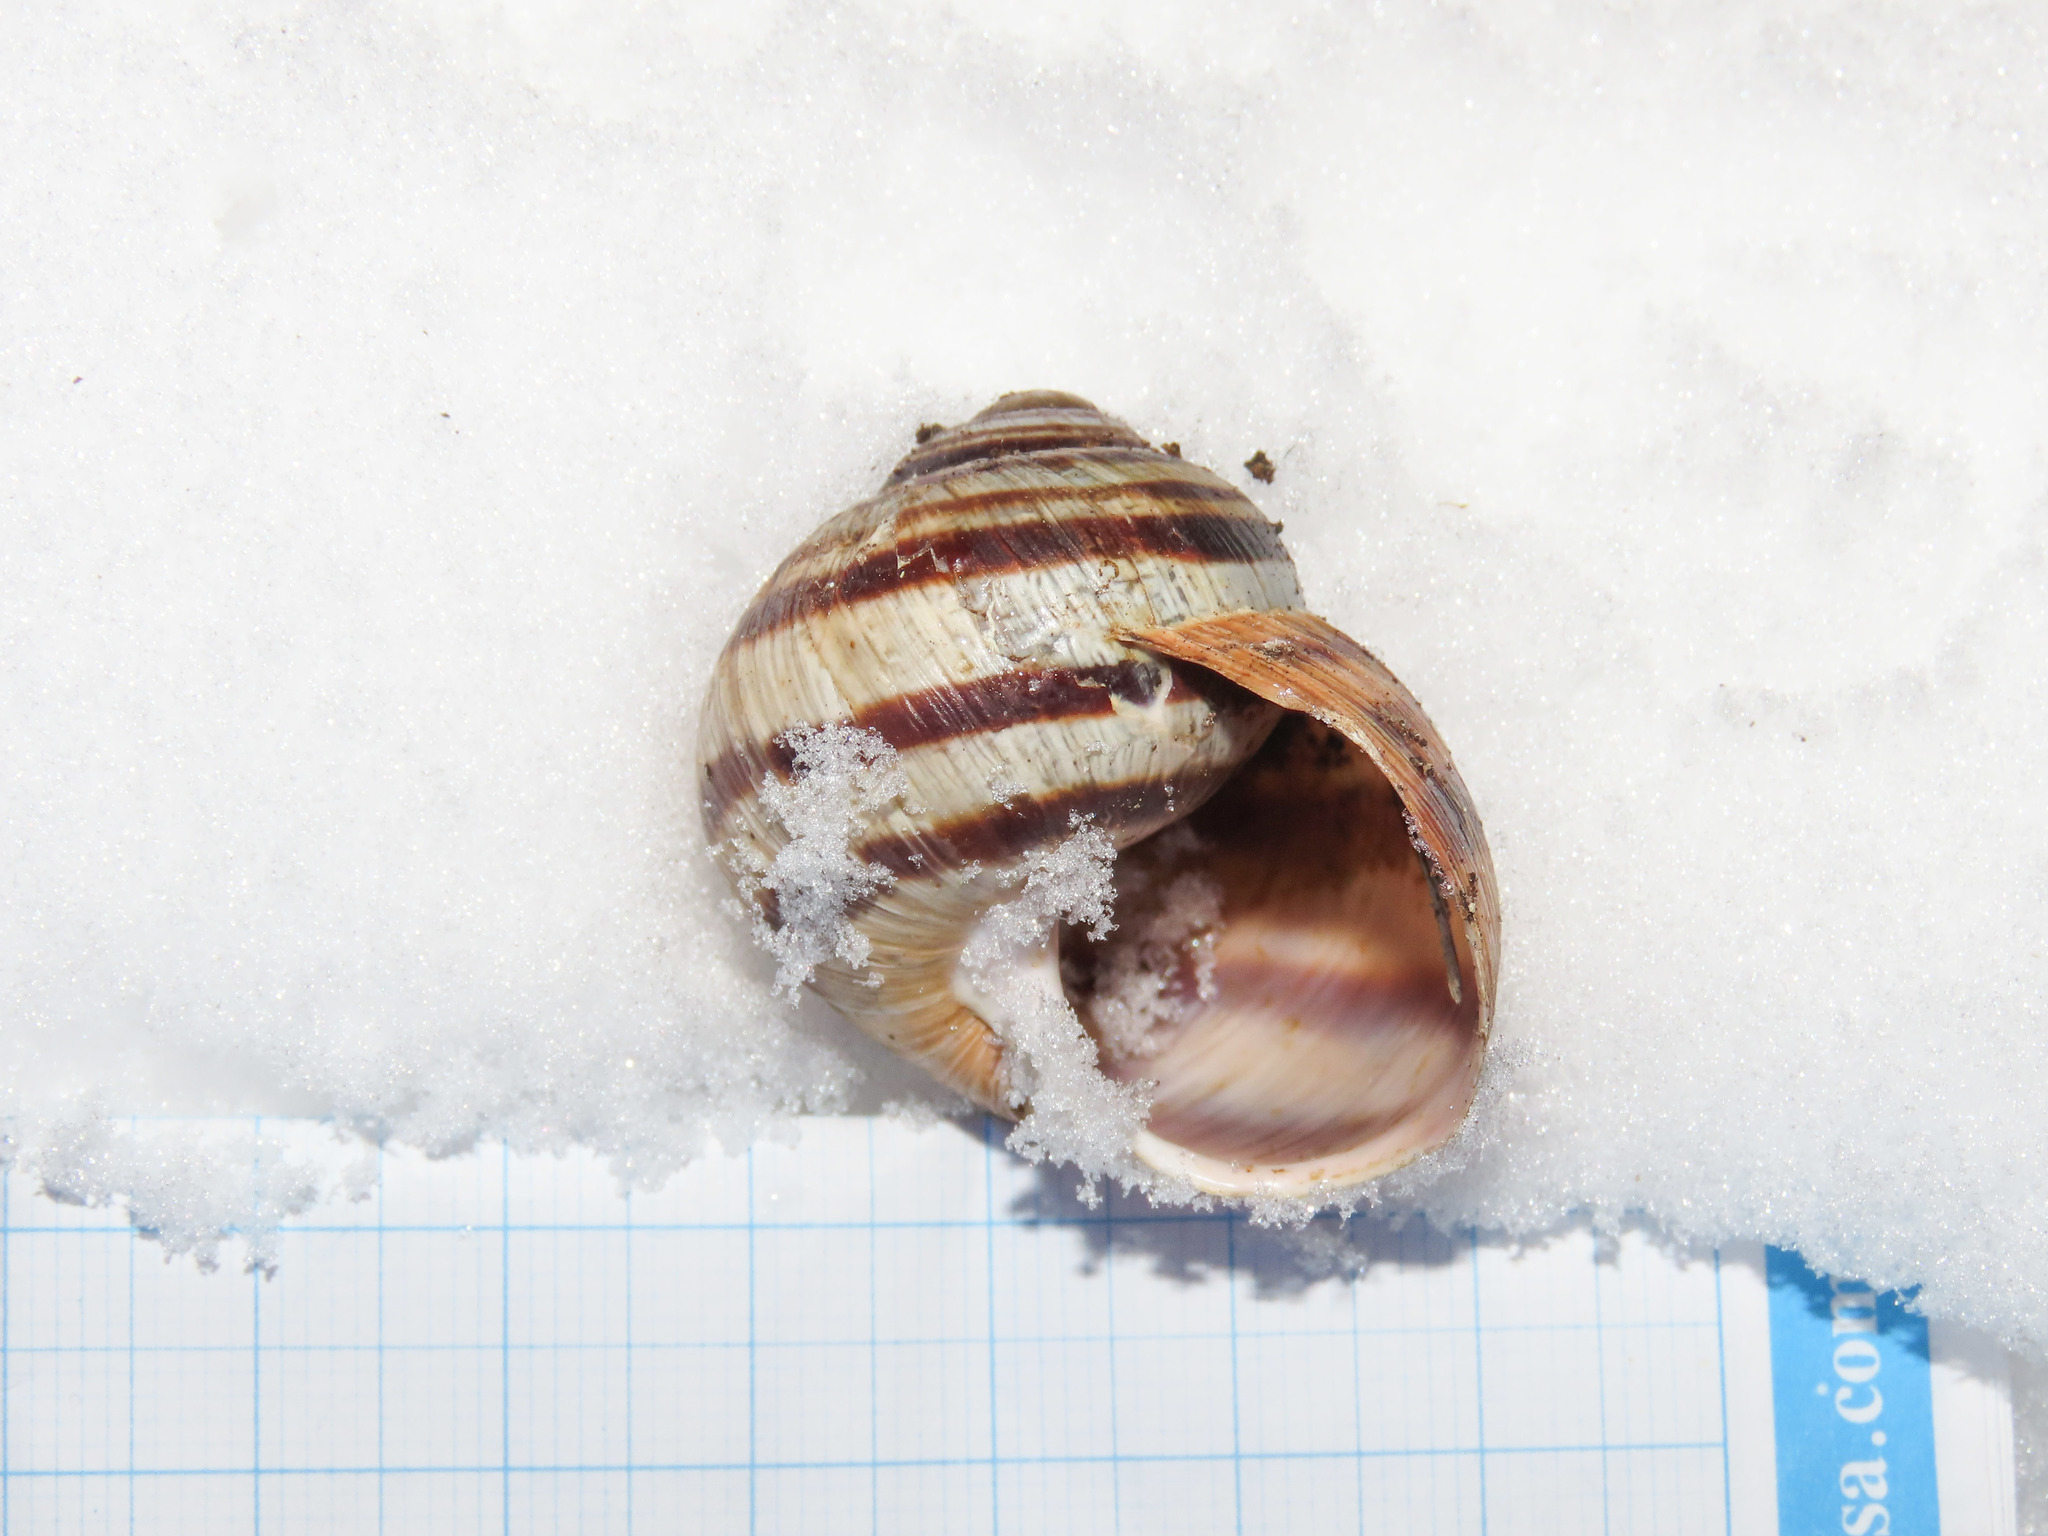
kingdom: Animalia
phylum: Mollusca
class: Gastropoda
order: Stylommatophora
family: Helicidae
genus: Helix
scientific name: Helix ligata
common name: Ligate snail
